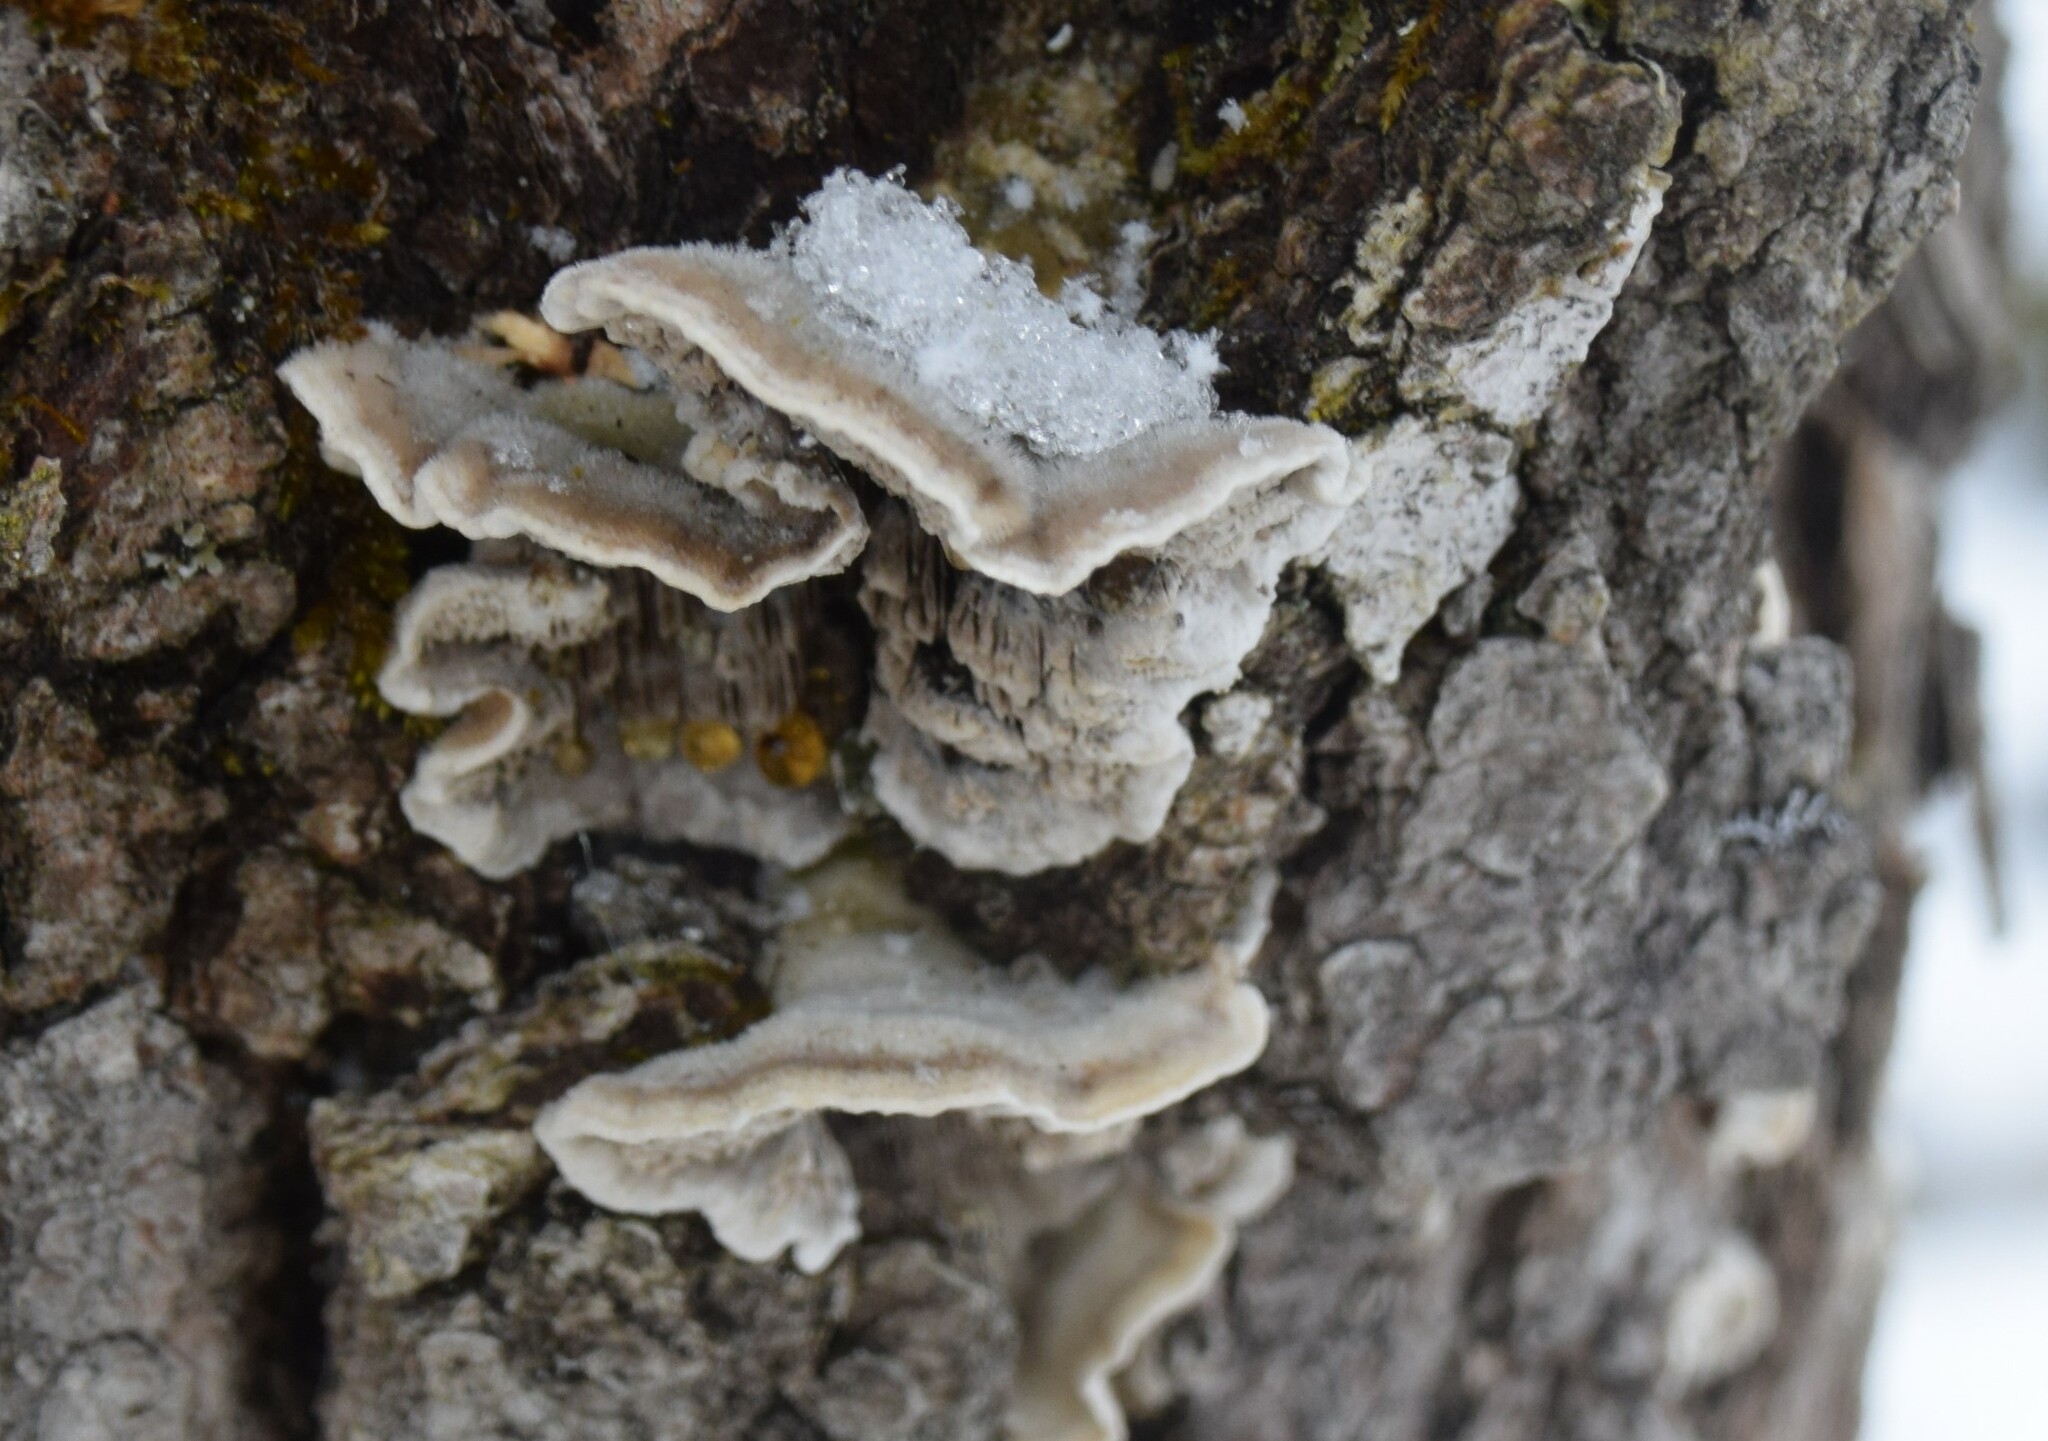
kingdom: Fungi
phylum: Basidiomycota
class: Agaricomycetes
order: Polyporales
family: Cerrenaceae
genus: Cerrena
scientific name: Cerrena unicolor
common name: Mossy maze polypore
